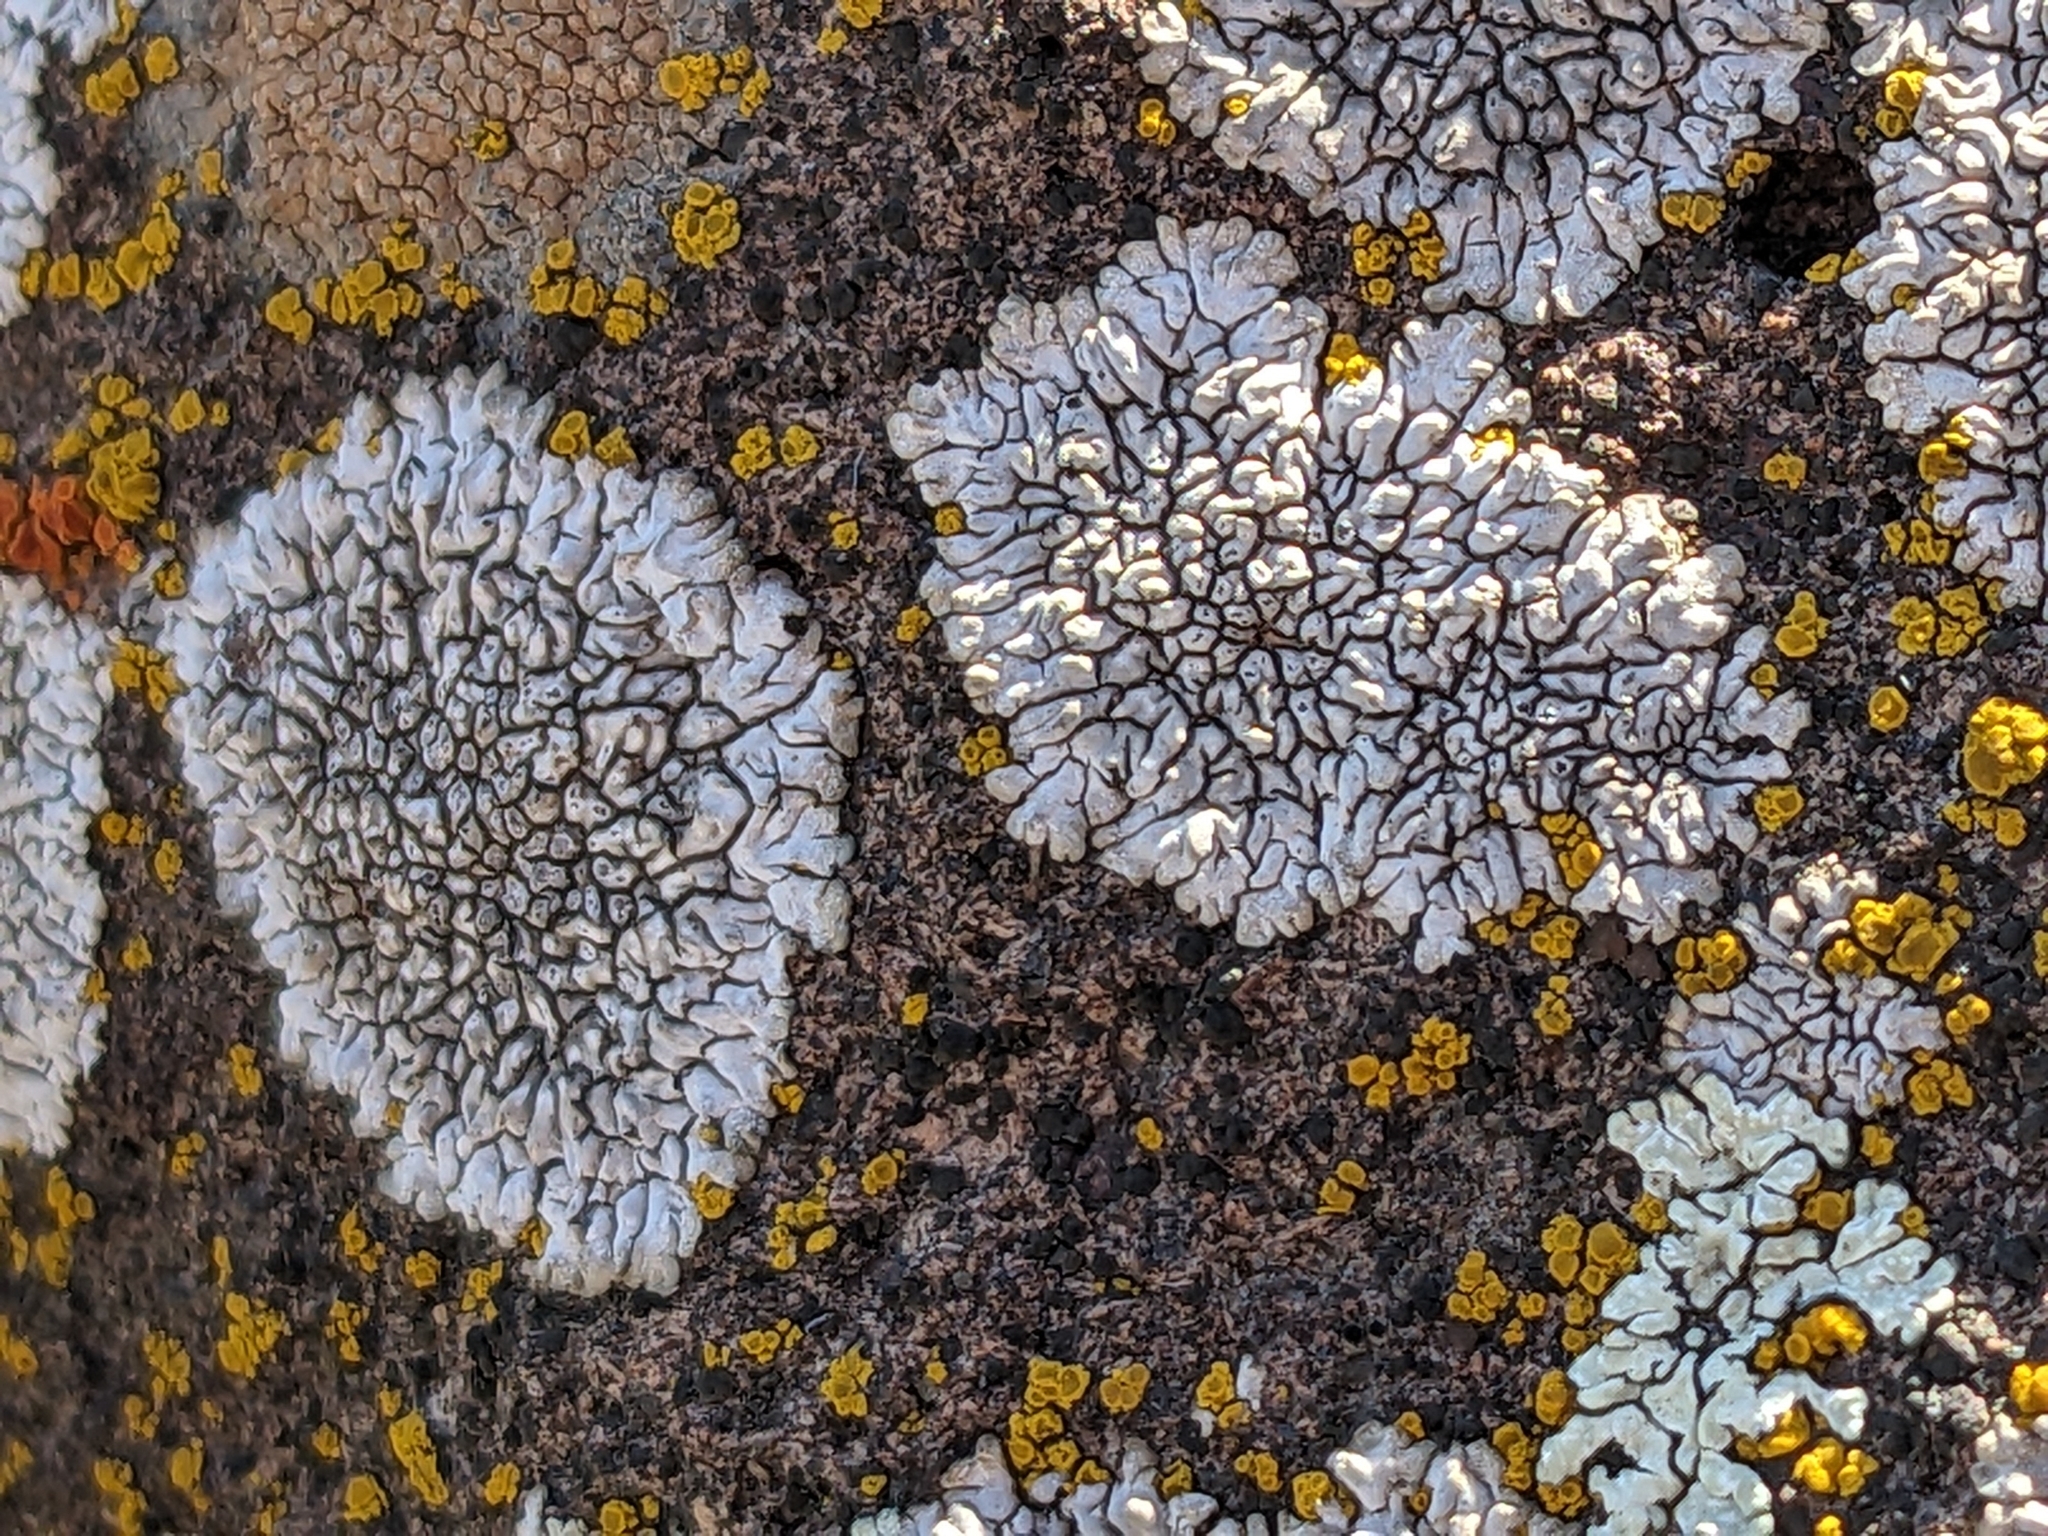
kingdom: Fungi
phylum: Ascomycota
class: Lecanoromycetes
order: Caliciales
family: Caliciaceae
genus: Dimelaena
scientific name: Dimelaena radiata
